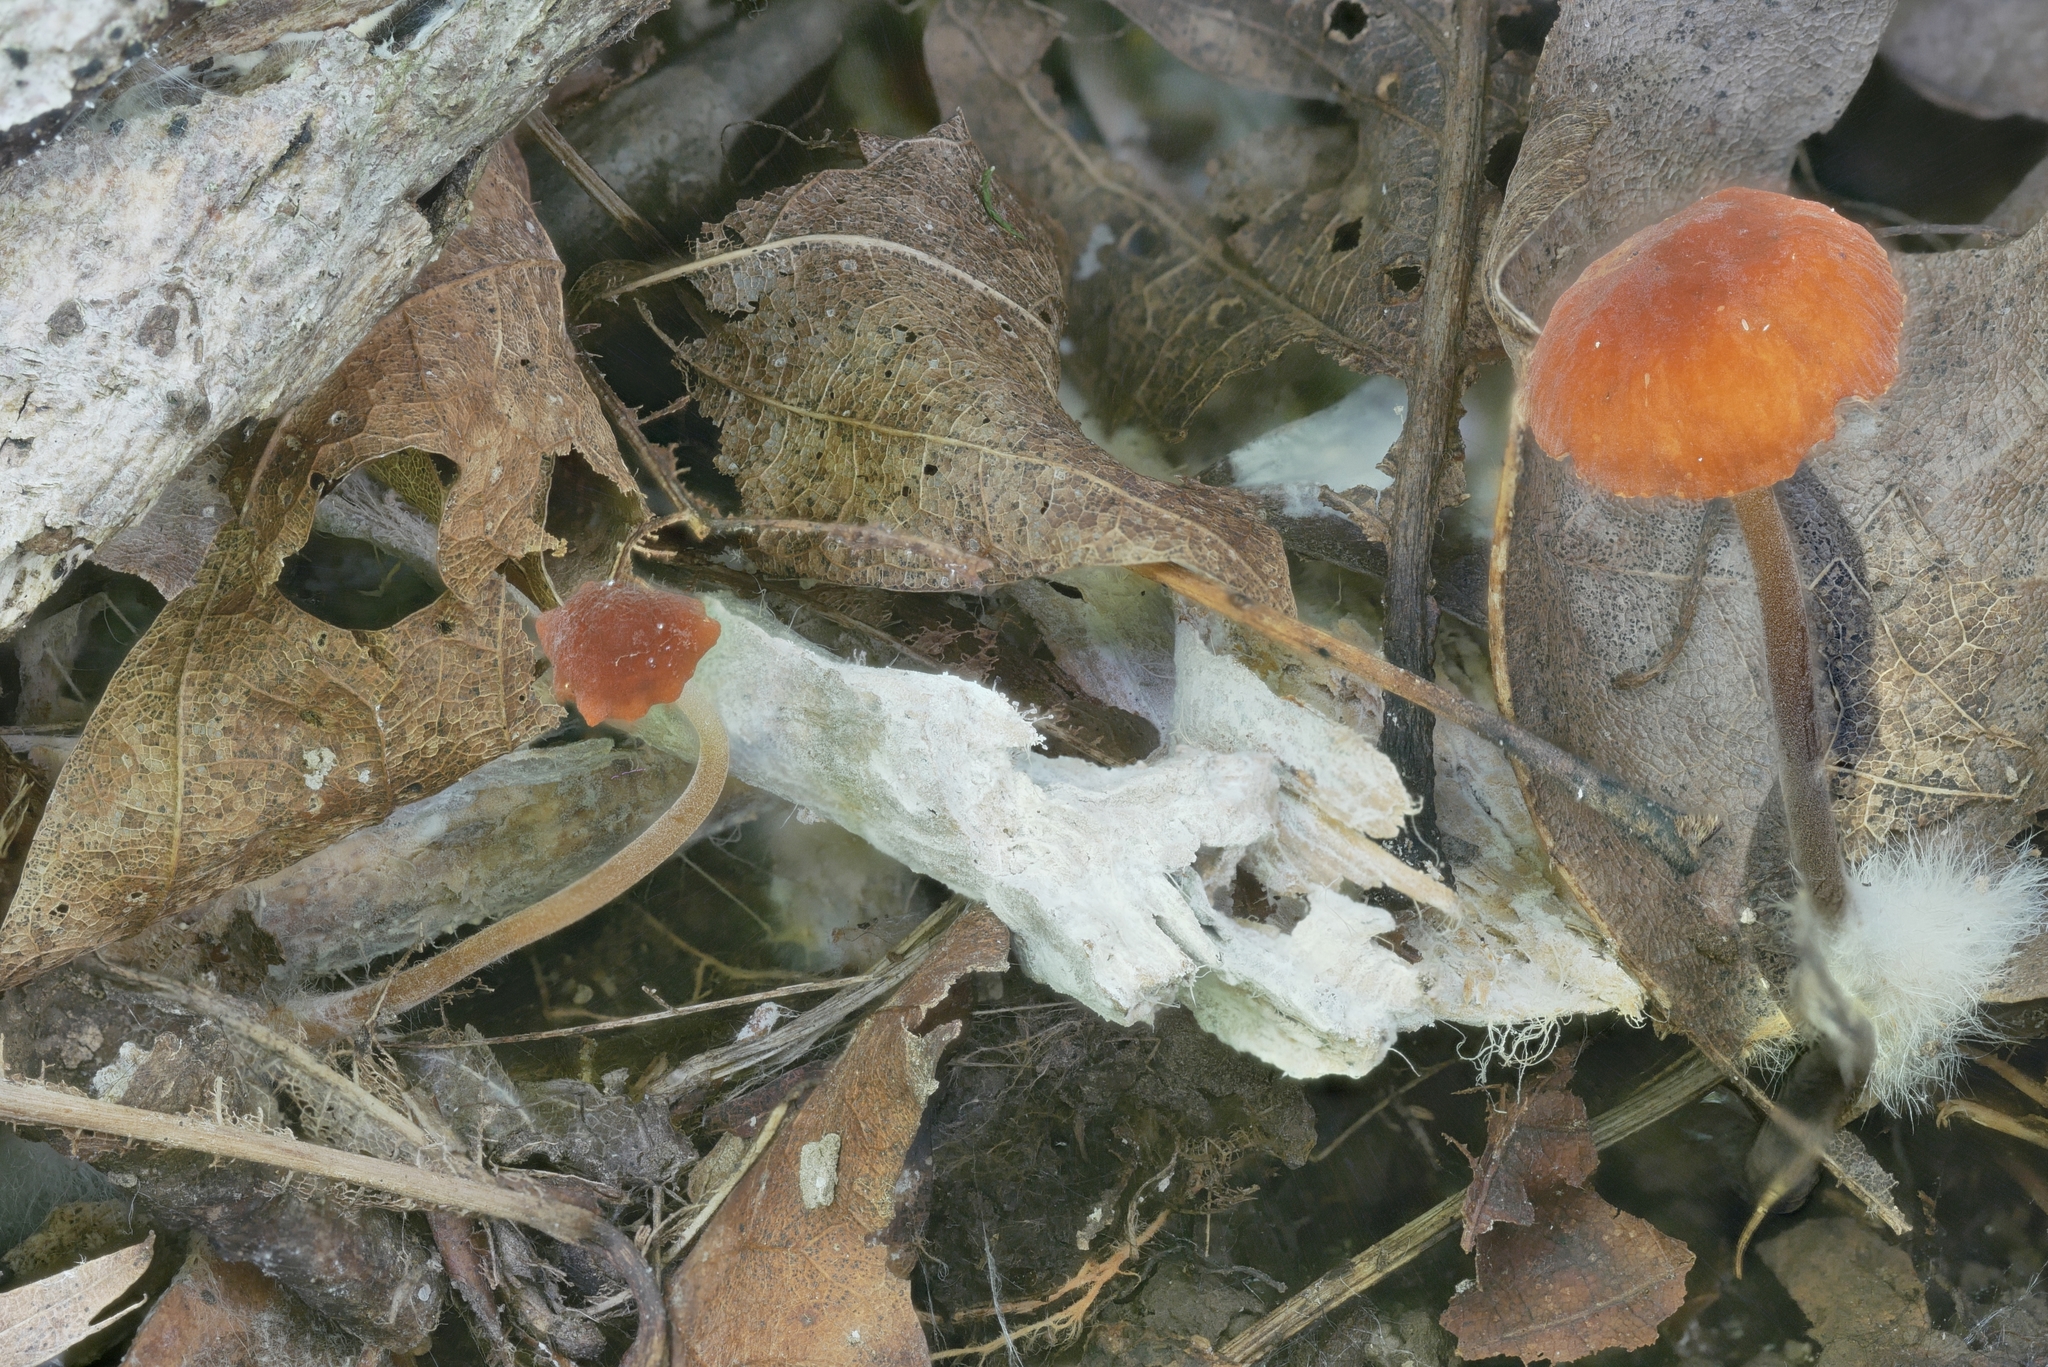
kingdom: Fungi
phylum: Basidiomycota
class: Agaricomycetes
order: Agaricales
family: Marasmiaceae
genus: Marasmius
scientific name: Marasmius sullivantii
